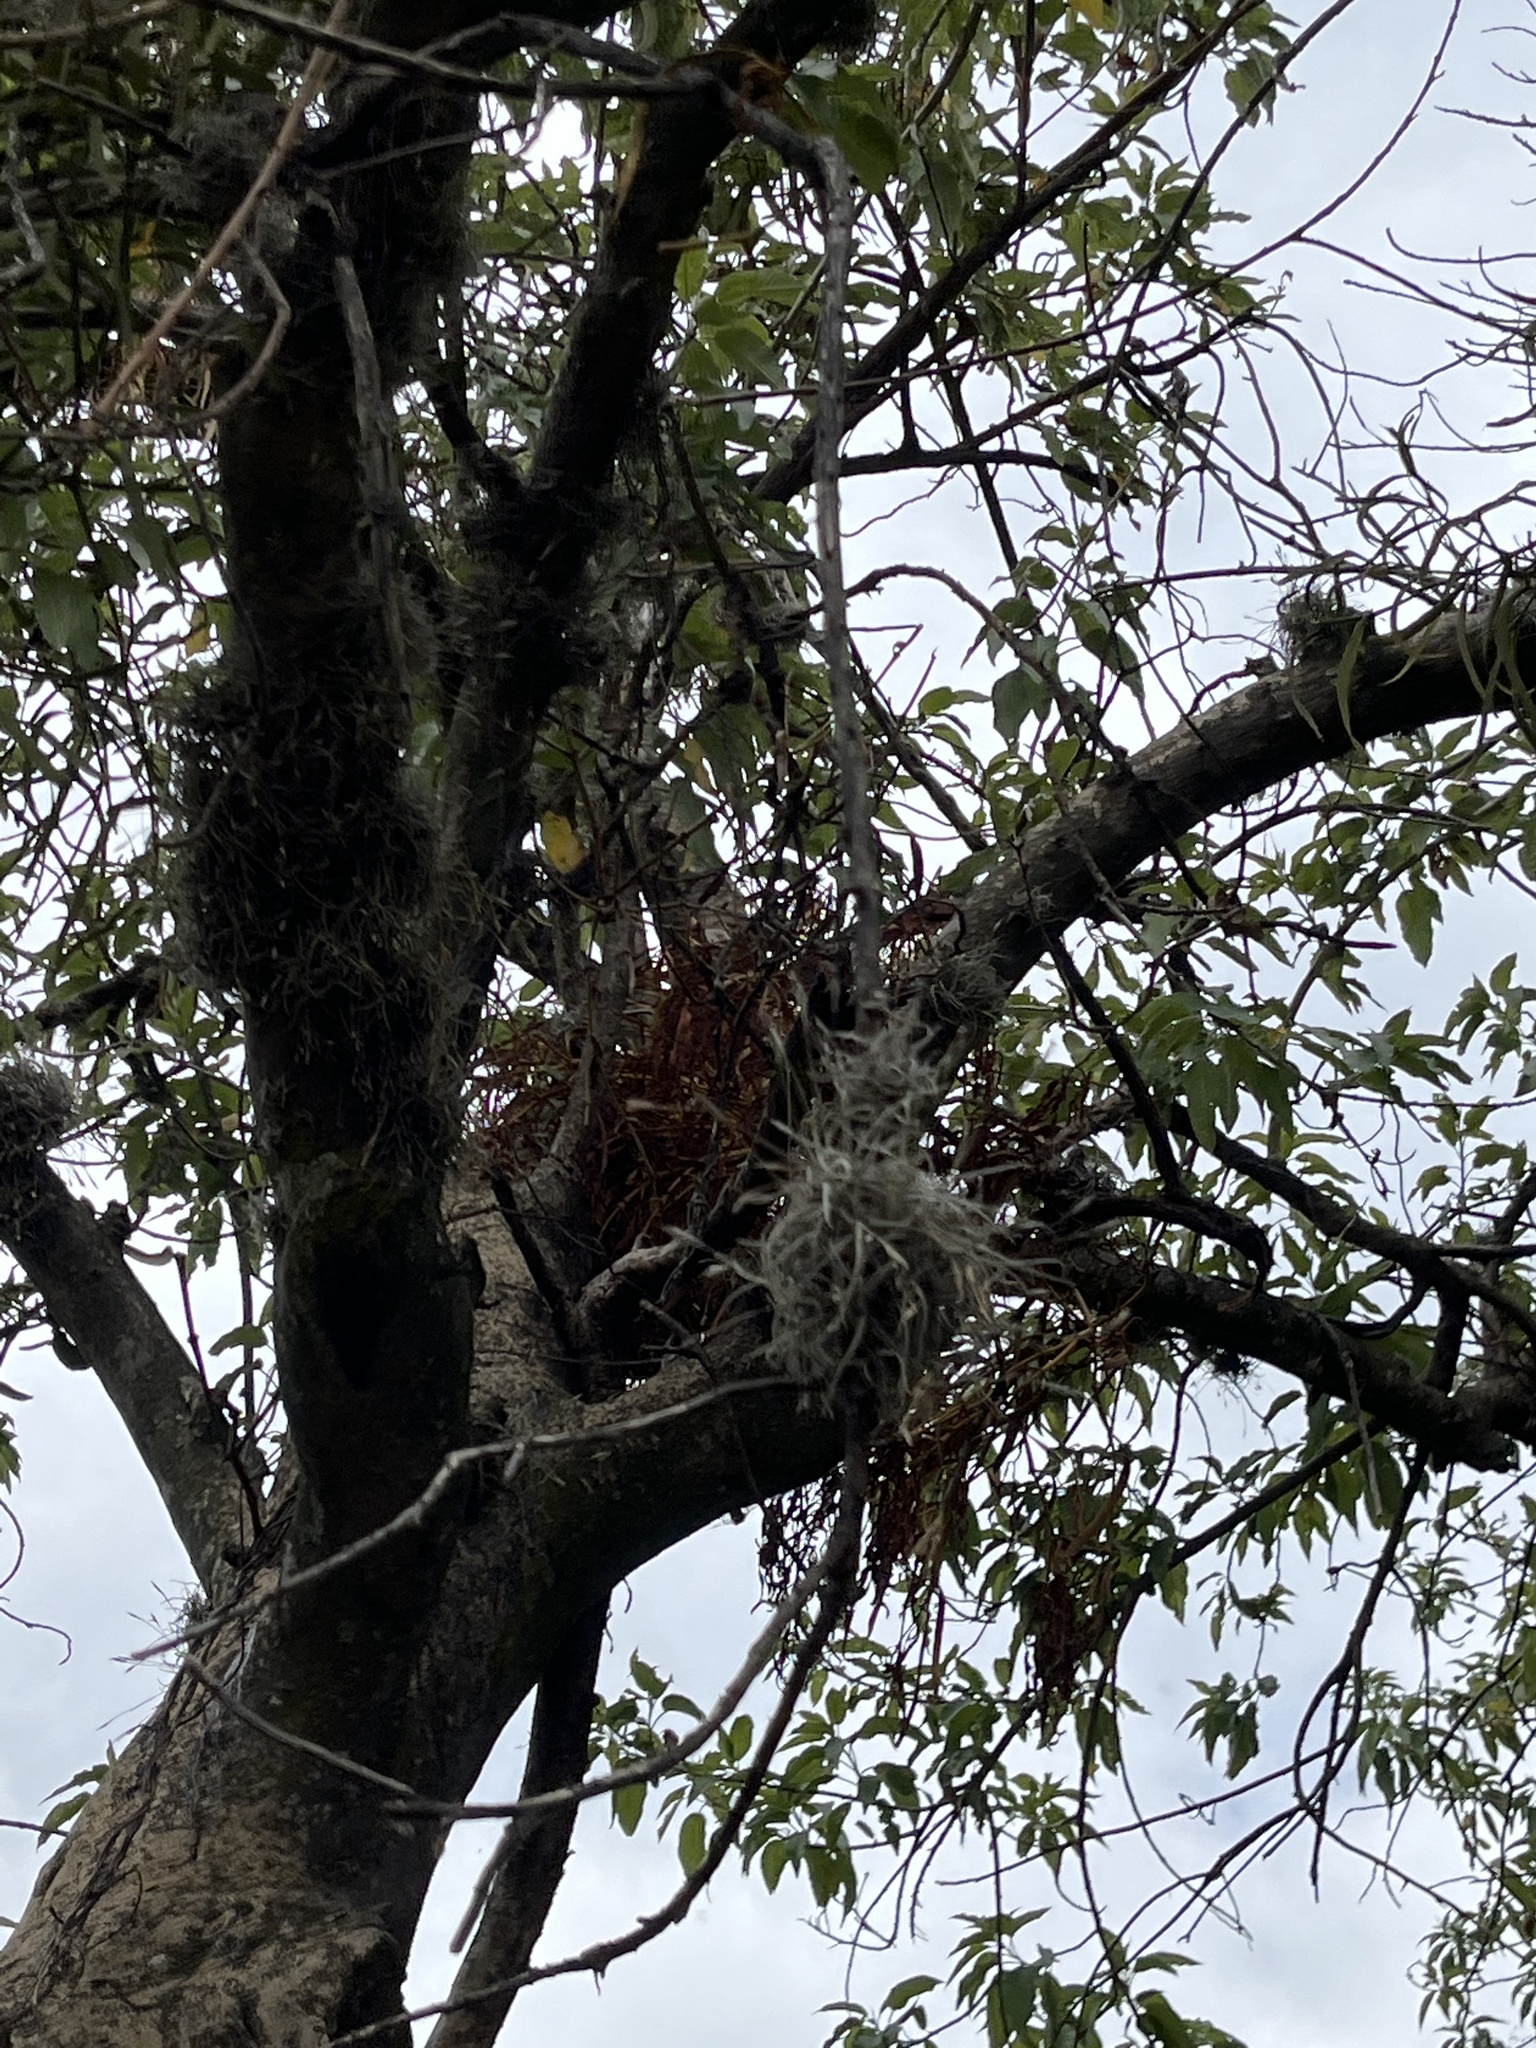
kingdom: Plantae
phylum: Tracheophyta
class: Liliopsida
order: Poales
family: Bromeliaceae
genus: Tillandsia
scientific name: Tillandsia recurvata
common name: Small ballmoss
